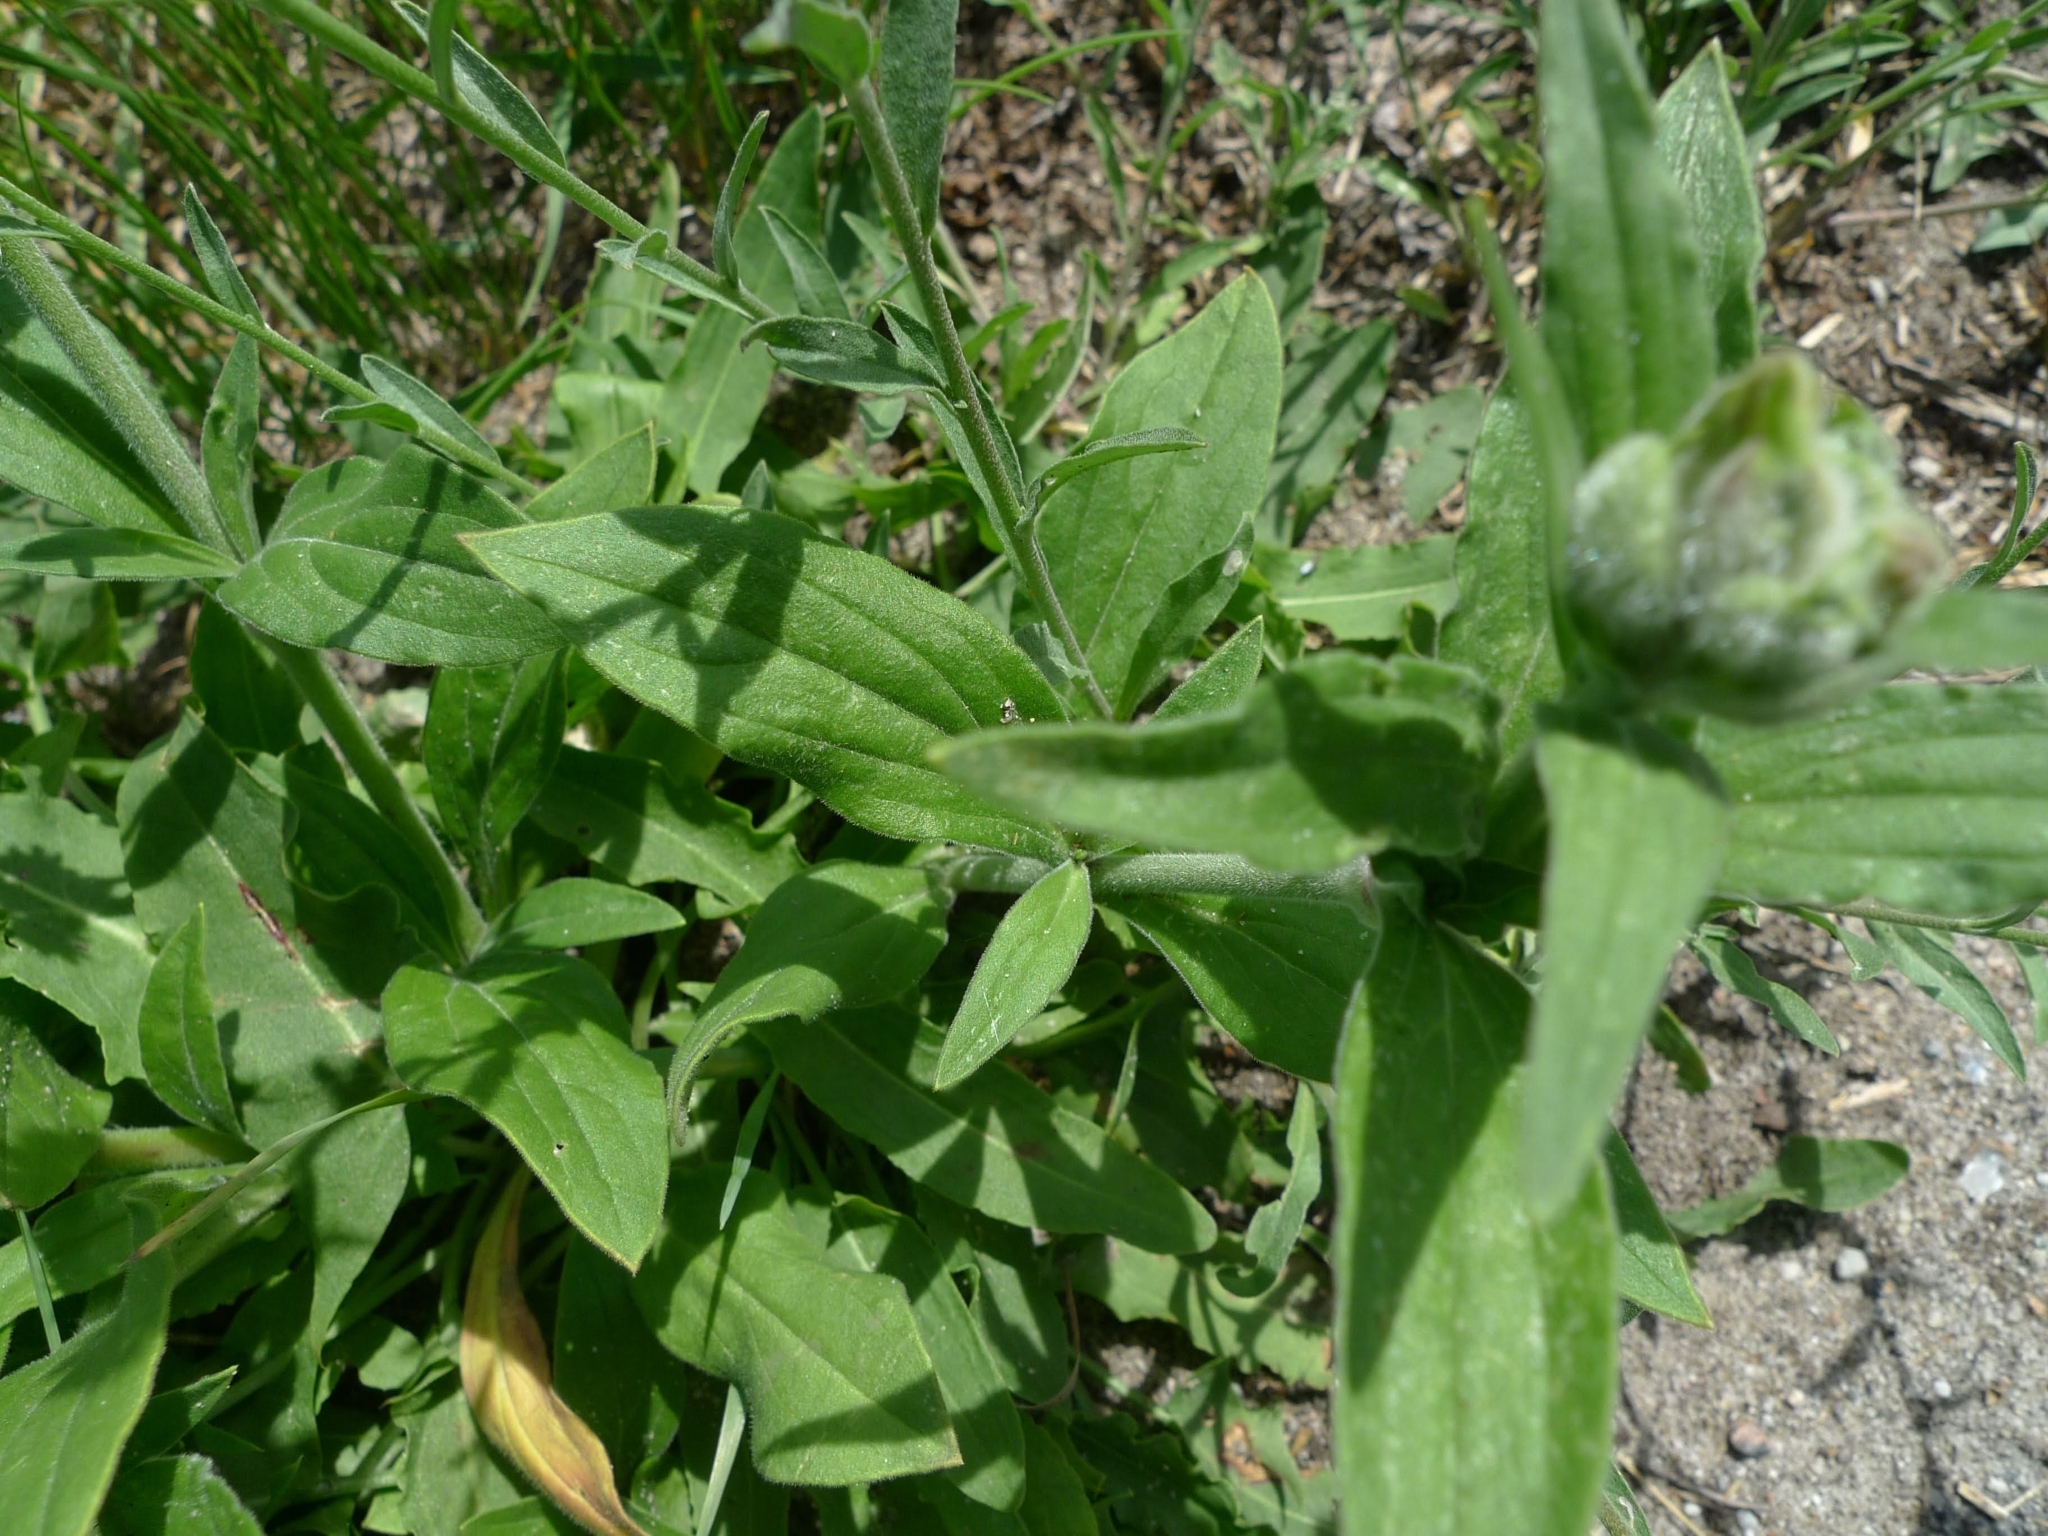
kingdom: Plantae
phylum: Tracheophyta
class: Magnoliopsida
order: Brassicales
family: Brassicaceae
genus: Berteroa
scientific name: Berteroa incana
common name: Hoary alison
